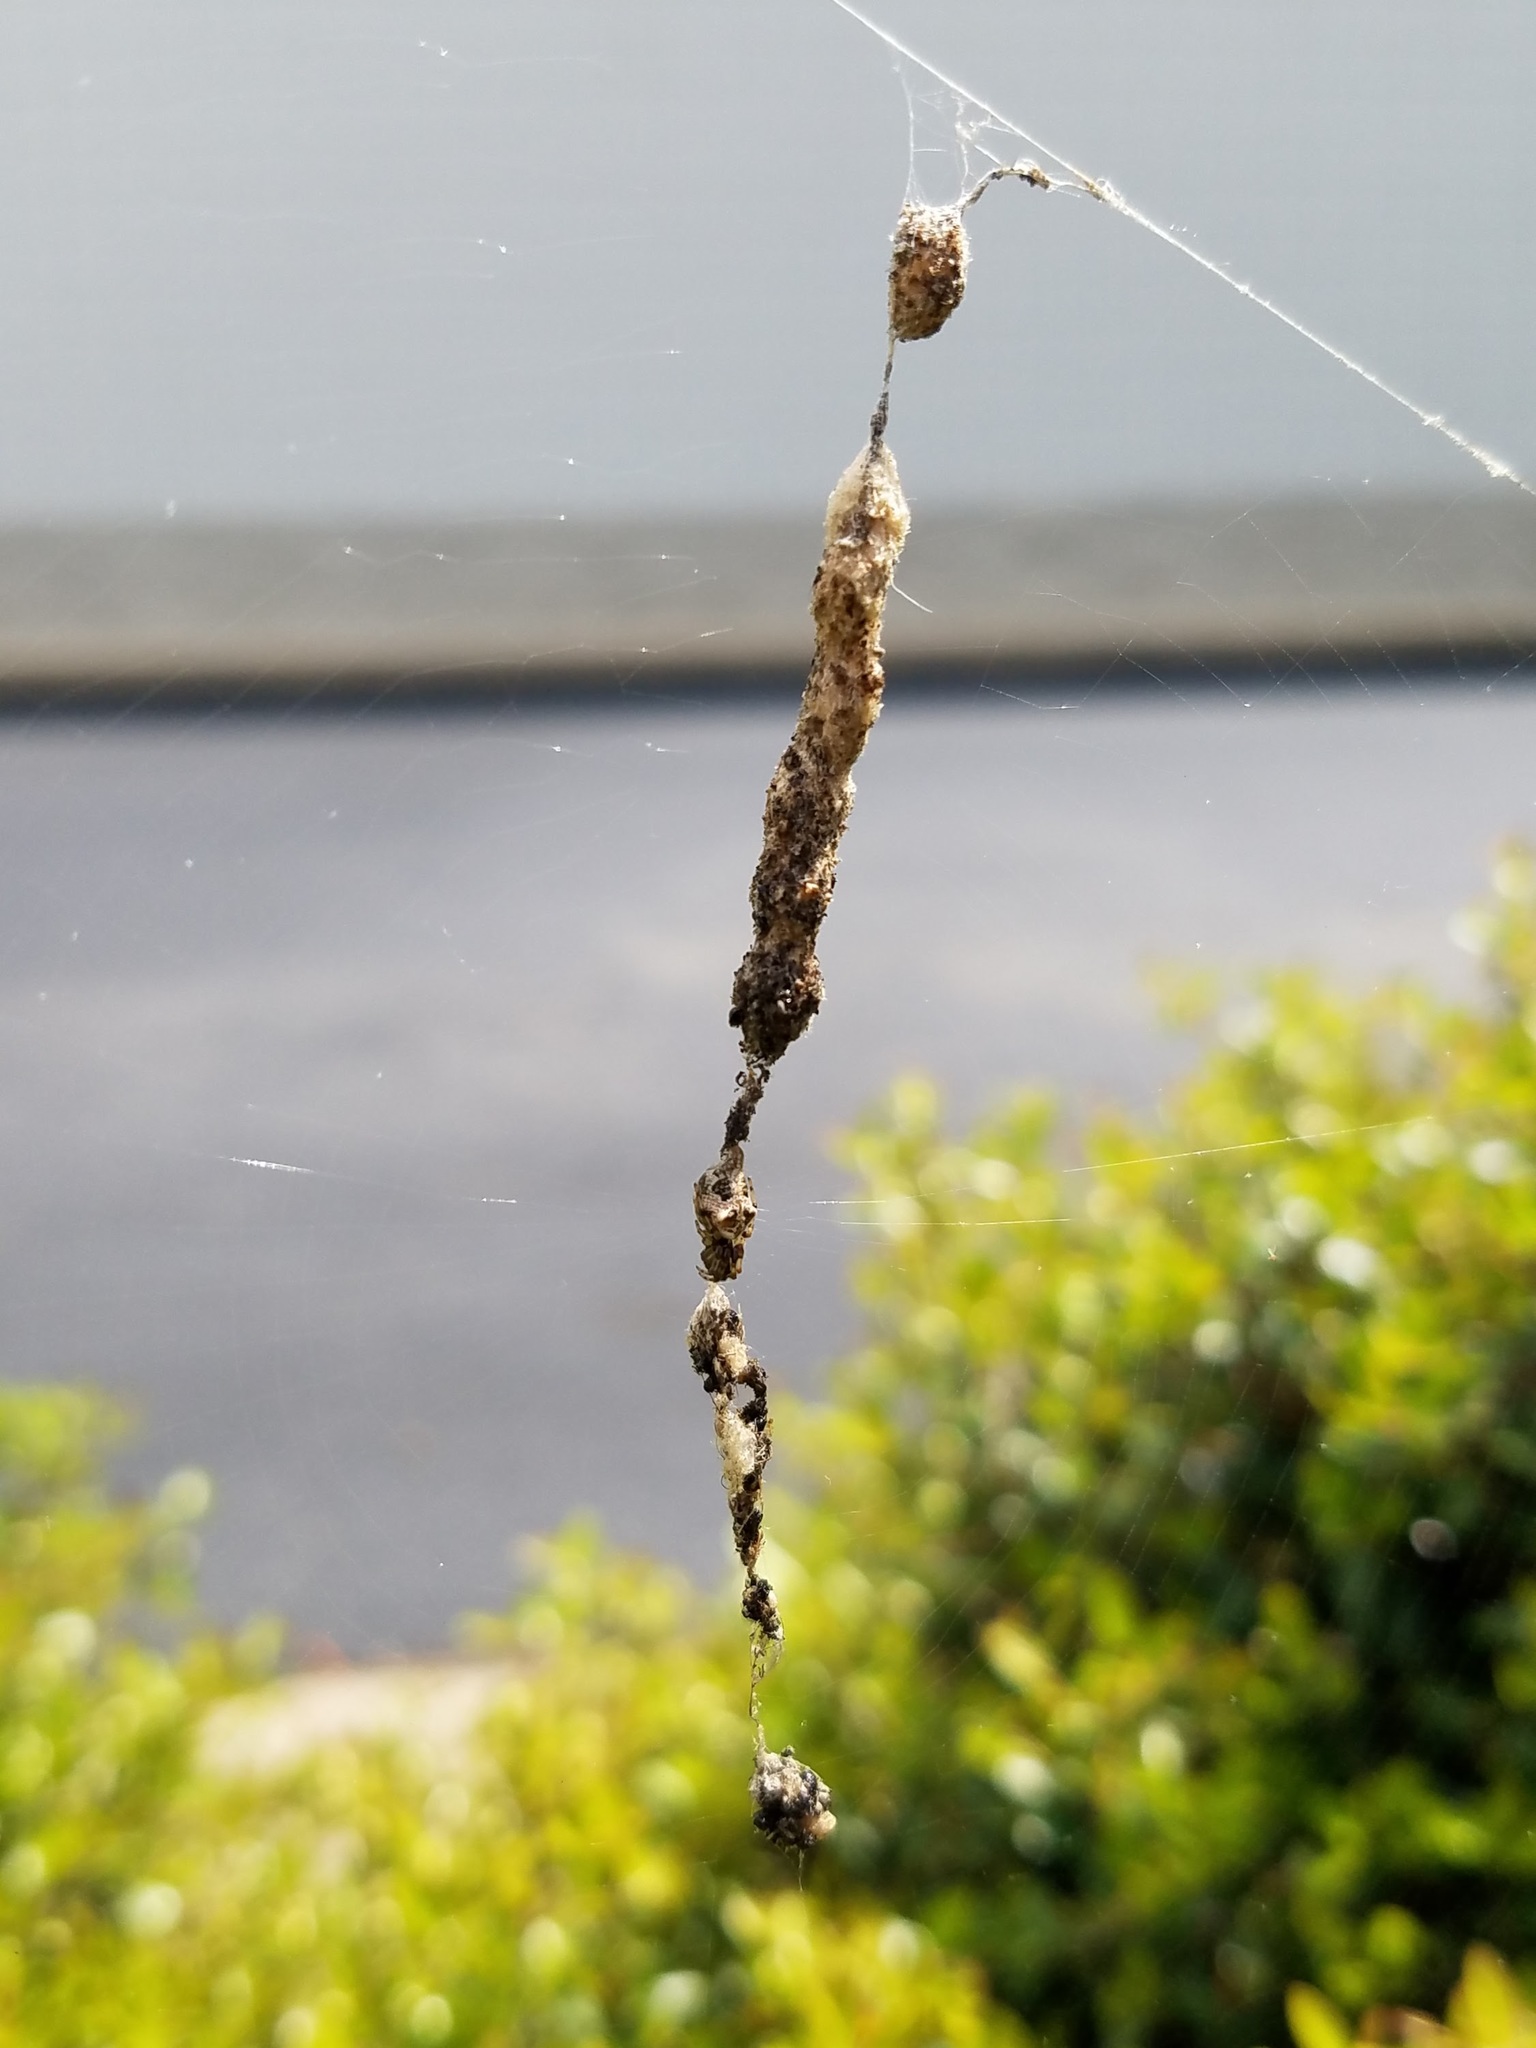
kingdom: Animalia
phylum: Arthropoda
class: Arachnida
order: Araneae
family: Araneidae
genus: Cyclosa
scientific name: Cyclosa turbinata
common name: Orb weavers
